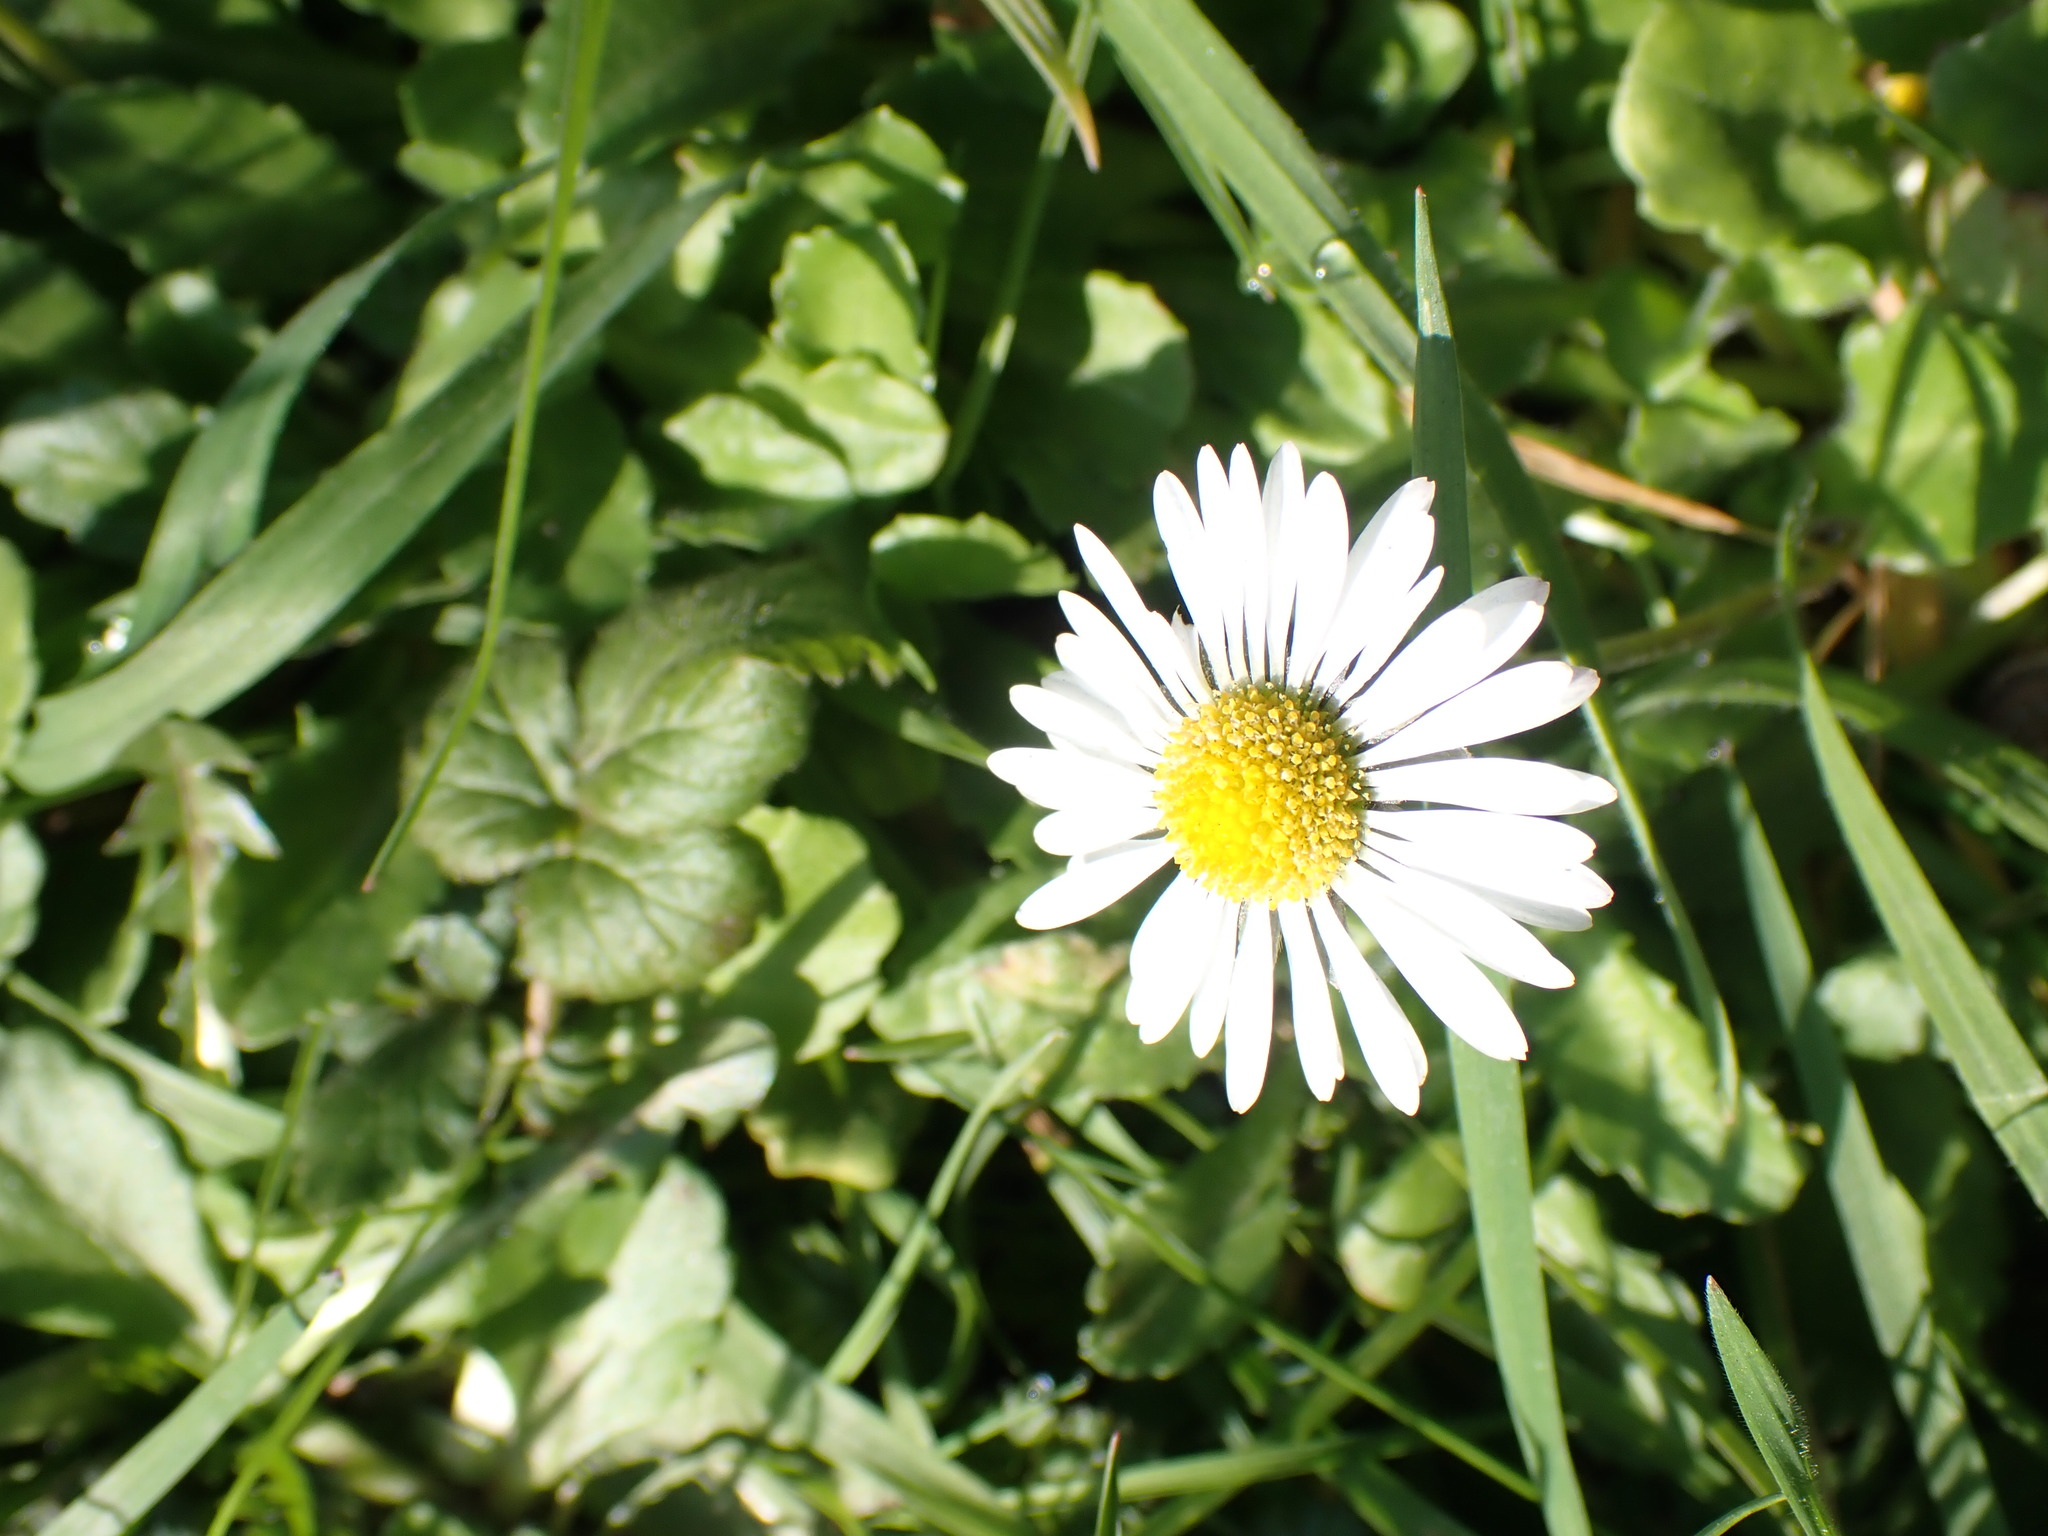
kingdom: Plantae
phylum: Tracheophyta
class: Magnoliopsida
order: Asterales
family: Asteraceae
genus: Bellis
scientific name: Bellis perennis
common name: Lawndaisy
